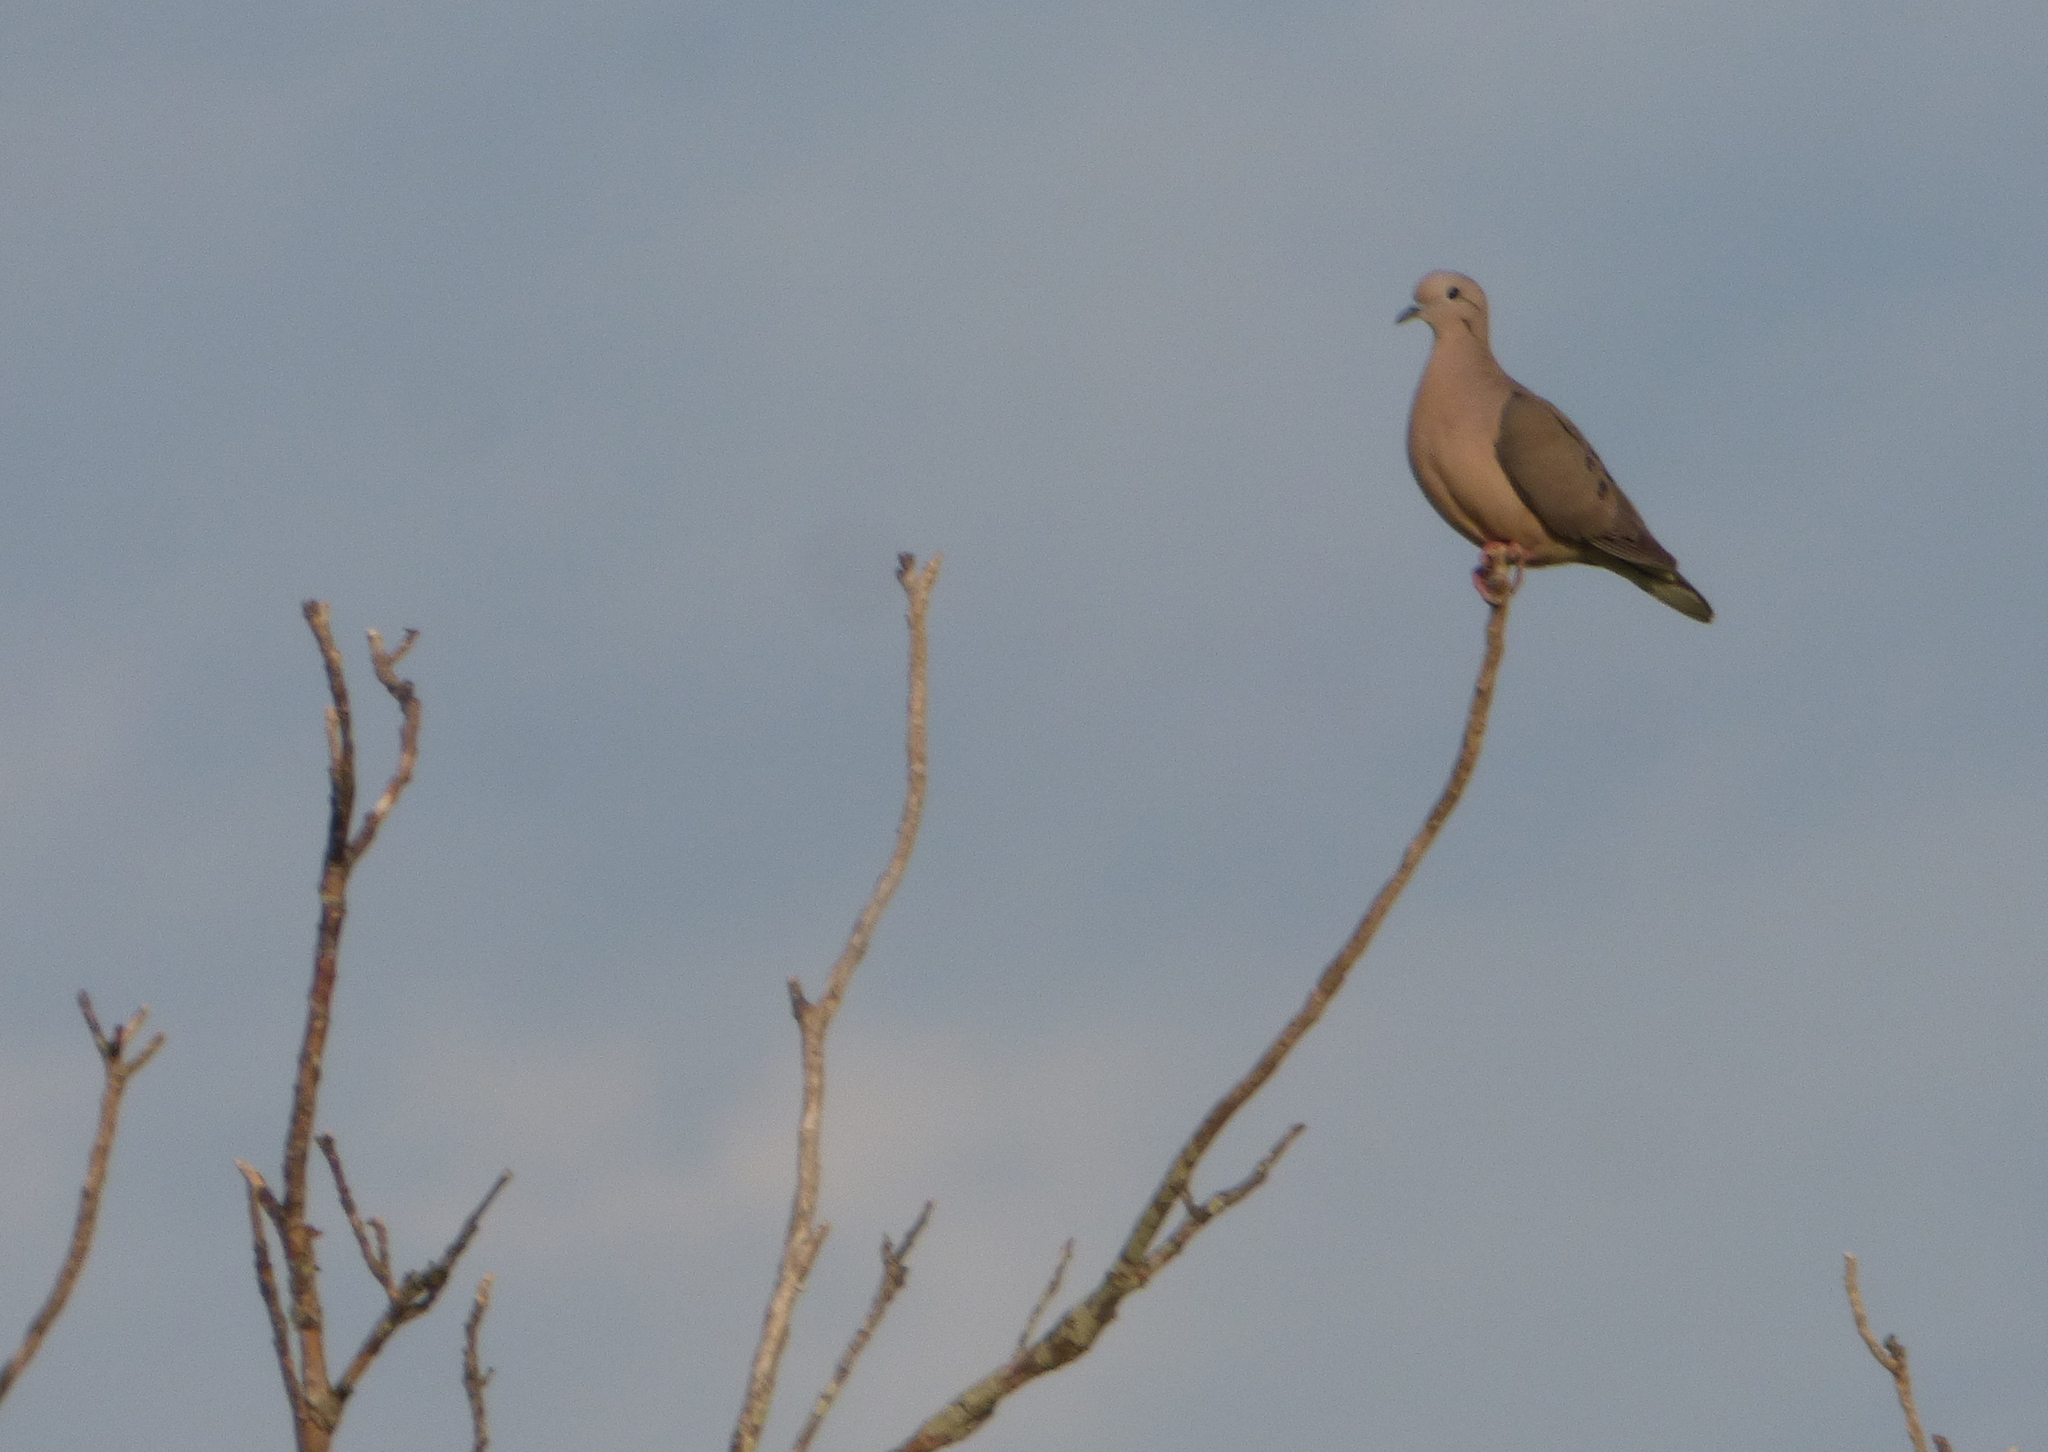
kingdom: Animalia
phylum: Chordata
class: Aves
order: Columbiformes
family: Columbidae
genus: Zenaida
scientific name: Zenaida auriculata
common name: Eared dove
